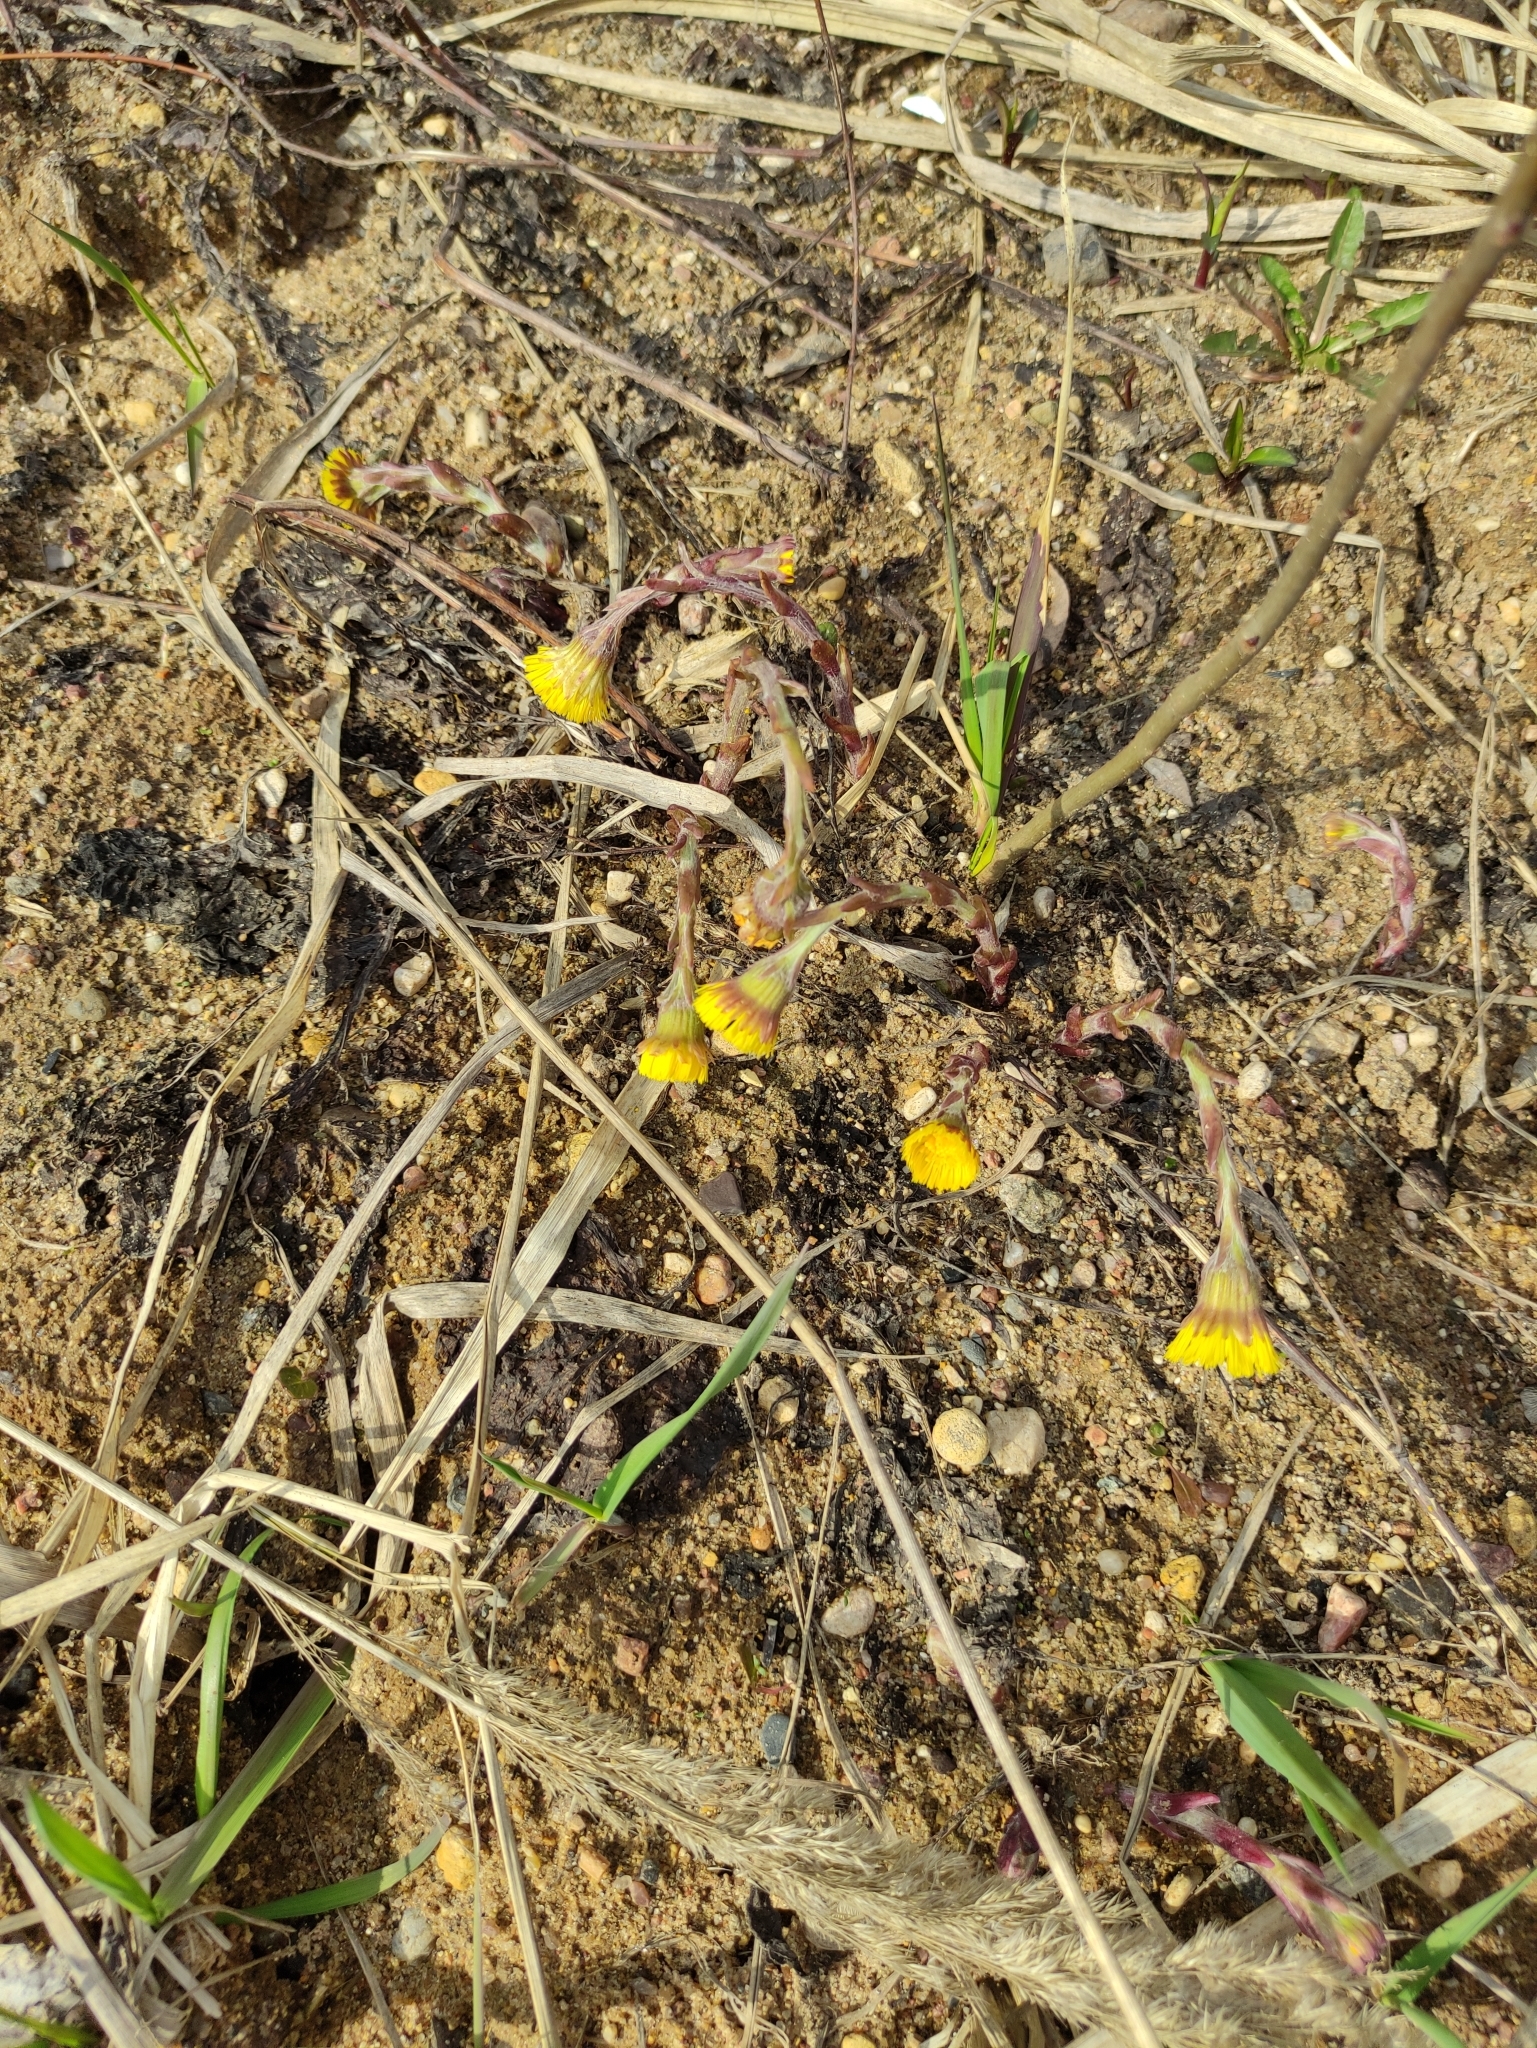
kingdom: Plantae
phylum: Tracheophyta
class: Magnoliopsida
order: Asterales
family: Asteraceae
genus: Tussilago
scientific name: Tussilago farfara
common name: Coltsfoot
